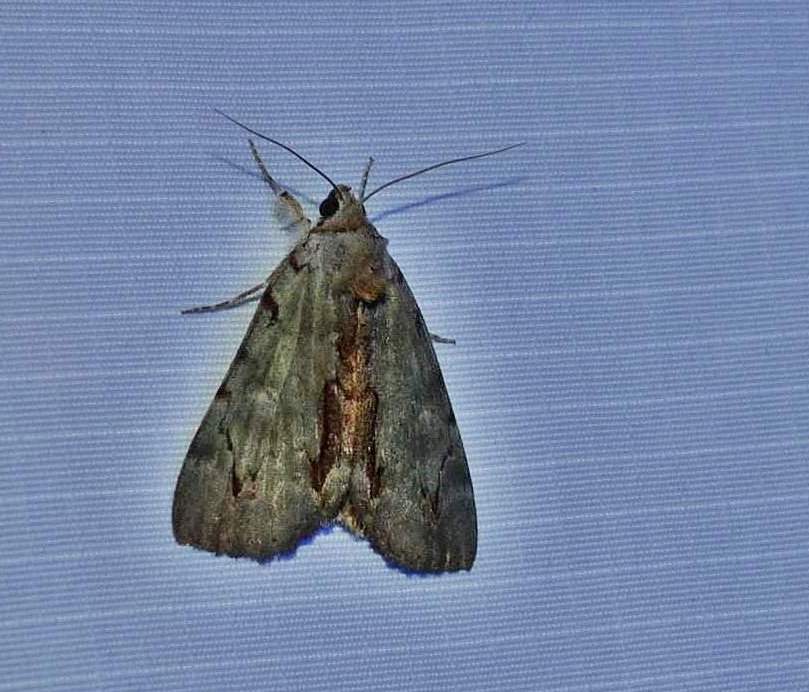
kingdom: Animalia
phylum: Arthropoda
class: Insecta
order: Lepidoptera
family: Erebidae
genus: Catocala
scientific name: Catocala grynea
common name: Woody underwing
